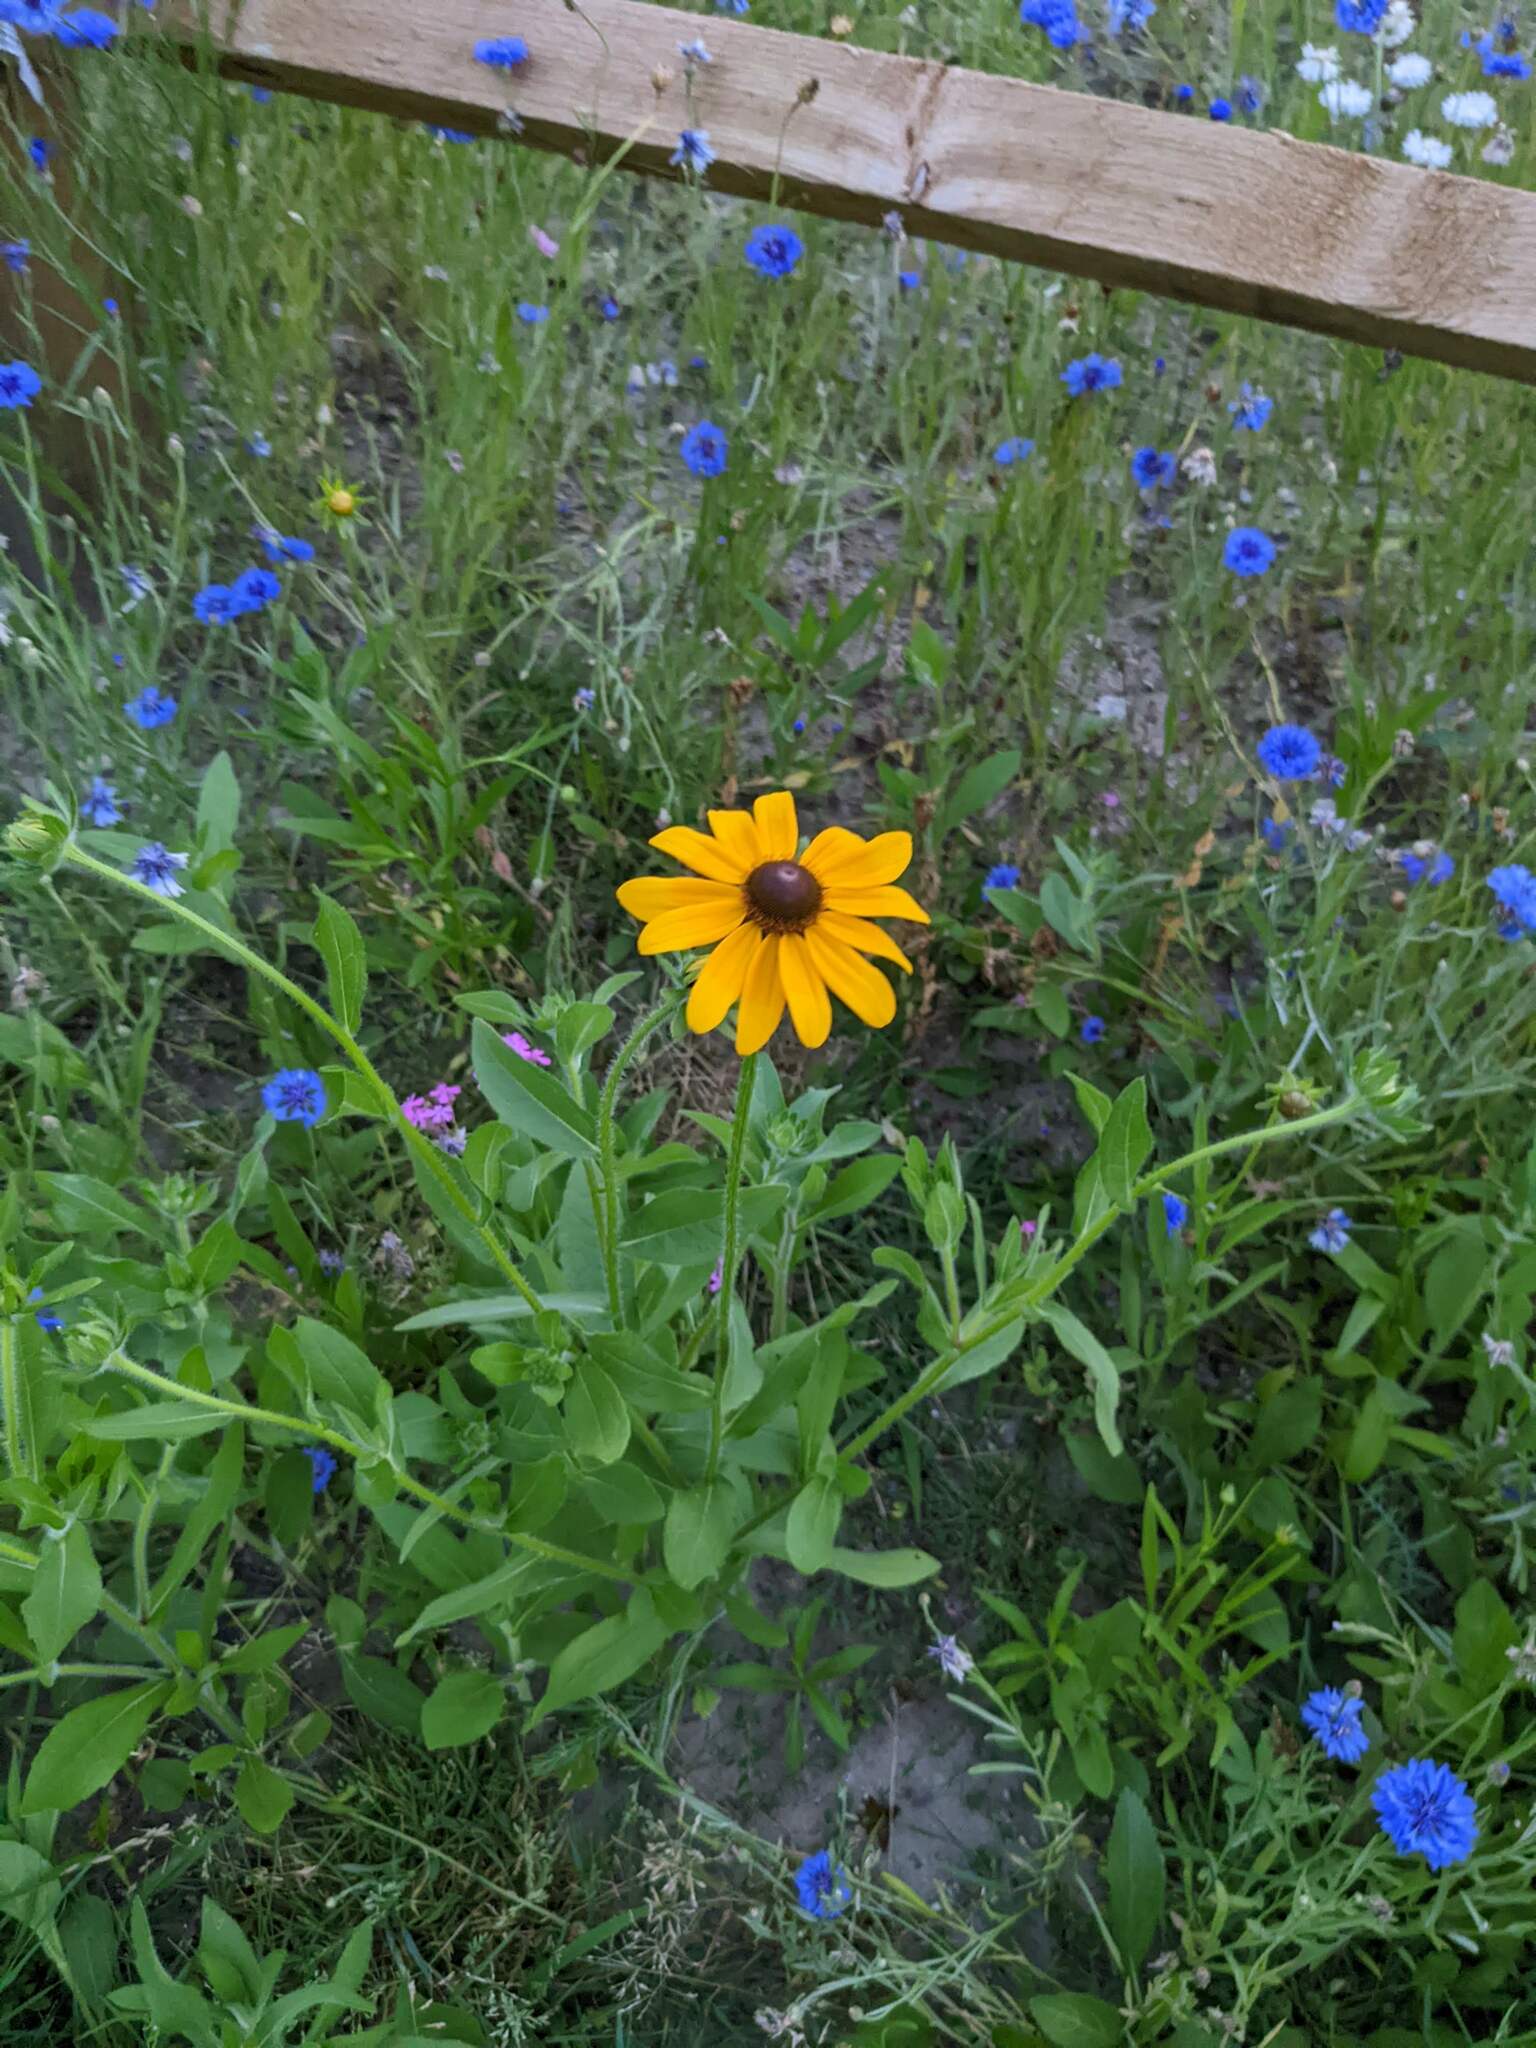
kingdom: Plantae
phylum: Tracheophyta
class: Magnoliopsida
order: Asterales
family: Asteraceae
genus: Rudbeckia
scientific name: Rudbeckia hirta
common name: Black-eyed-susan
